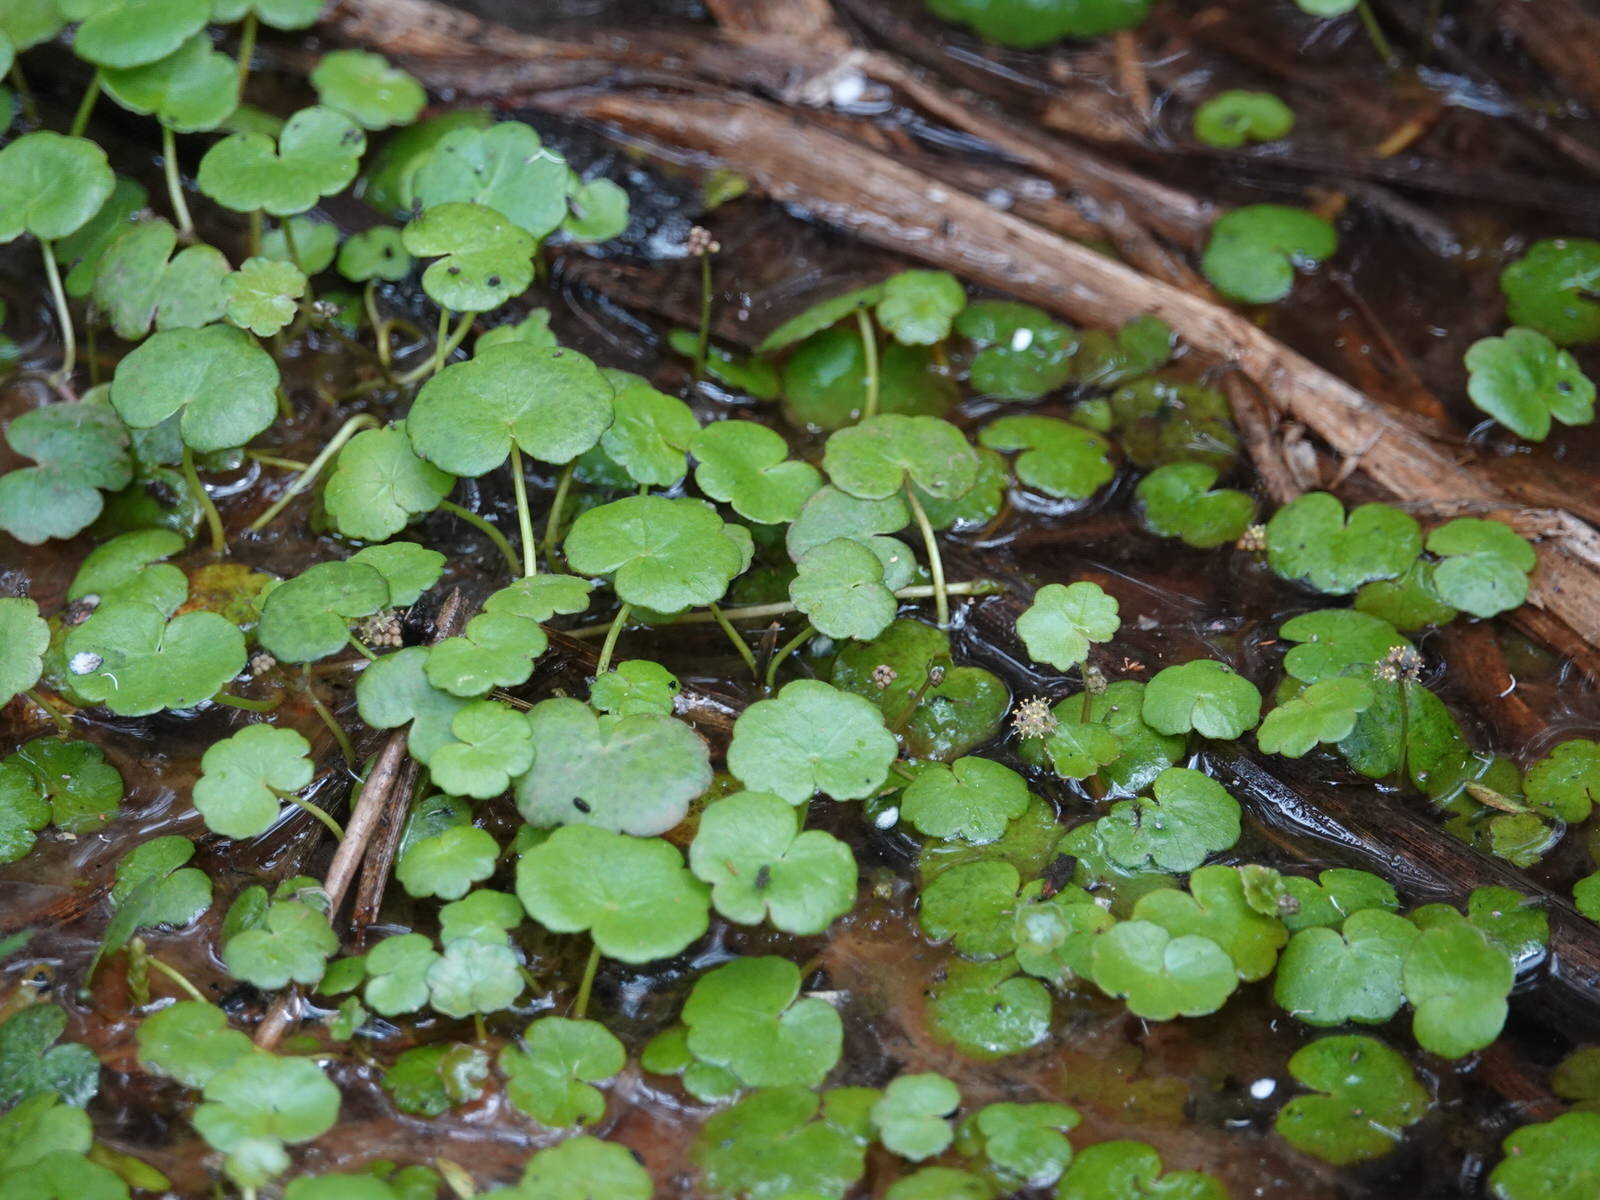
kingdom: Plantae
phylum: Tracheophyta
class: Magnoliopsida
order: Apiales
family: Araliaceae
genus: Hydrocotyle
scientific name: Hydrocotyle pterocarpa
